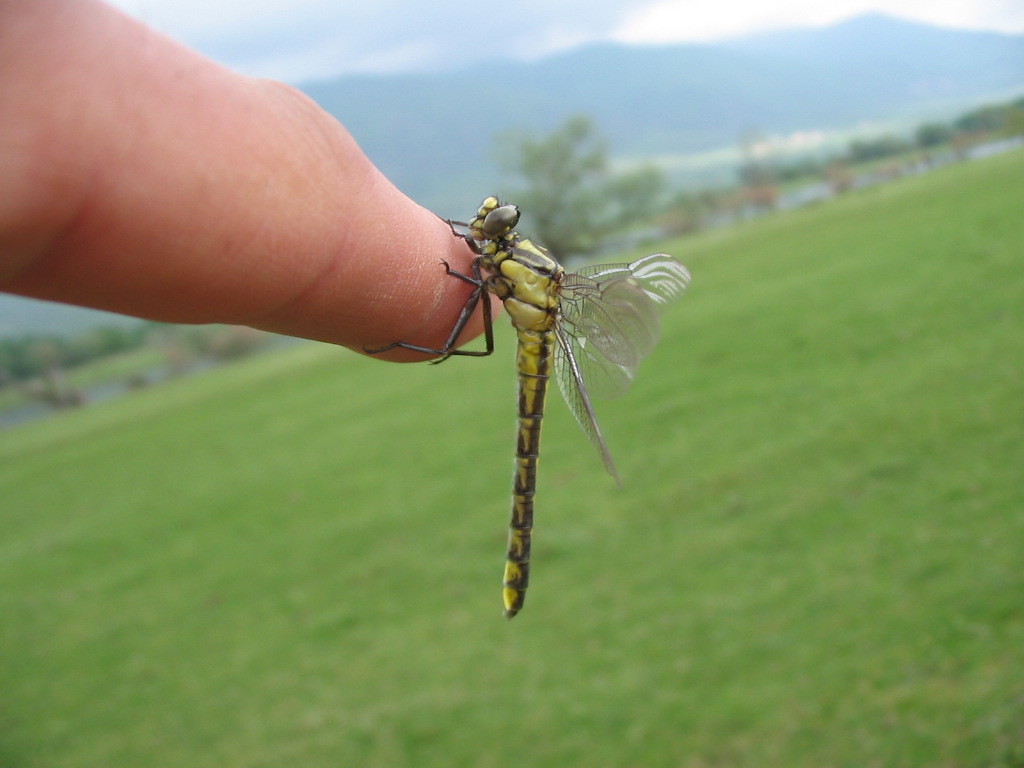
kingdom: Animalia
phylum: Arthropoda
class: Insecta
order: Odonata
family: Gomphidae
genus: Gomphus
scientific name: Gomphus vulgatissimus
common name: Club-tailed dragonfly
